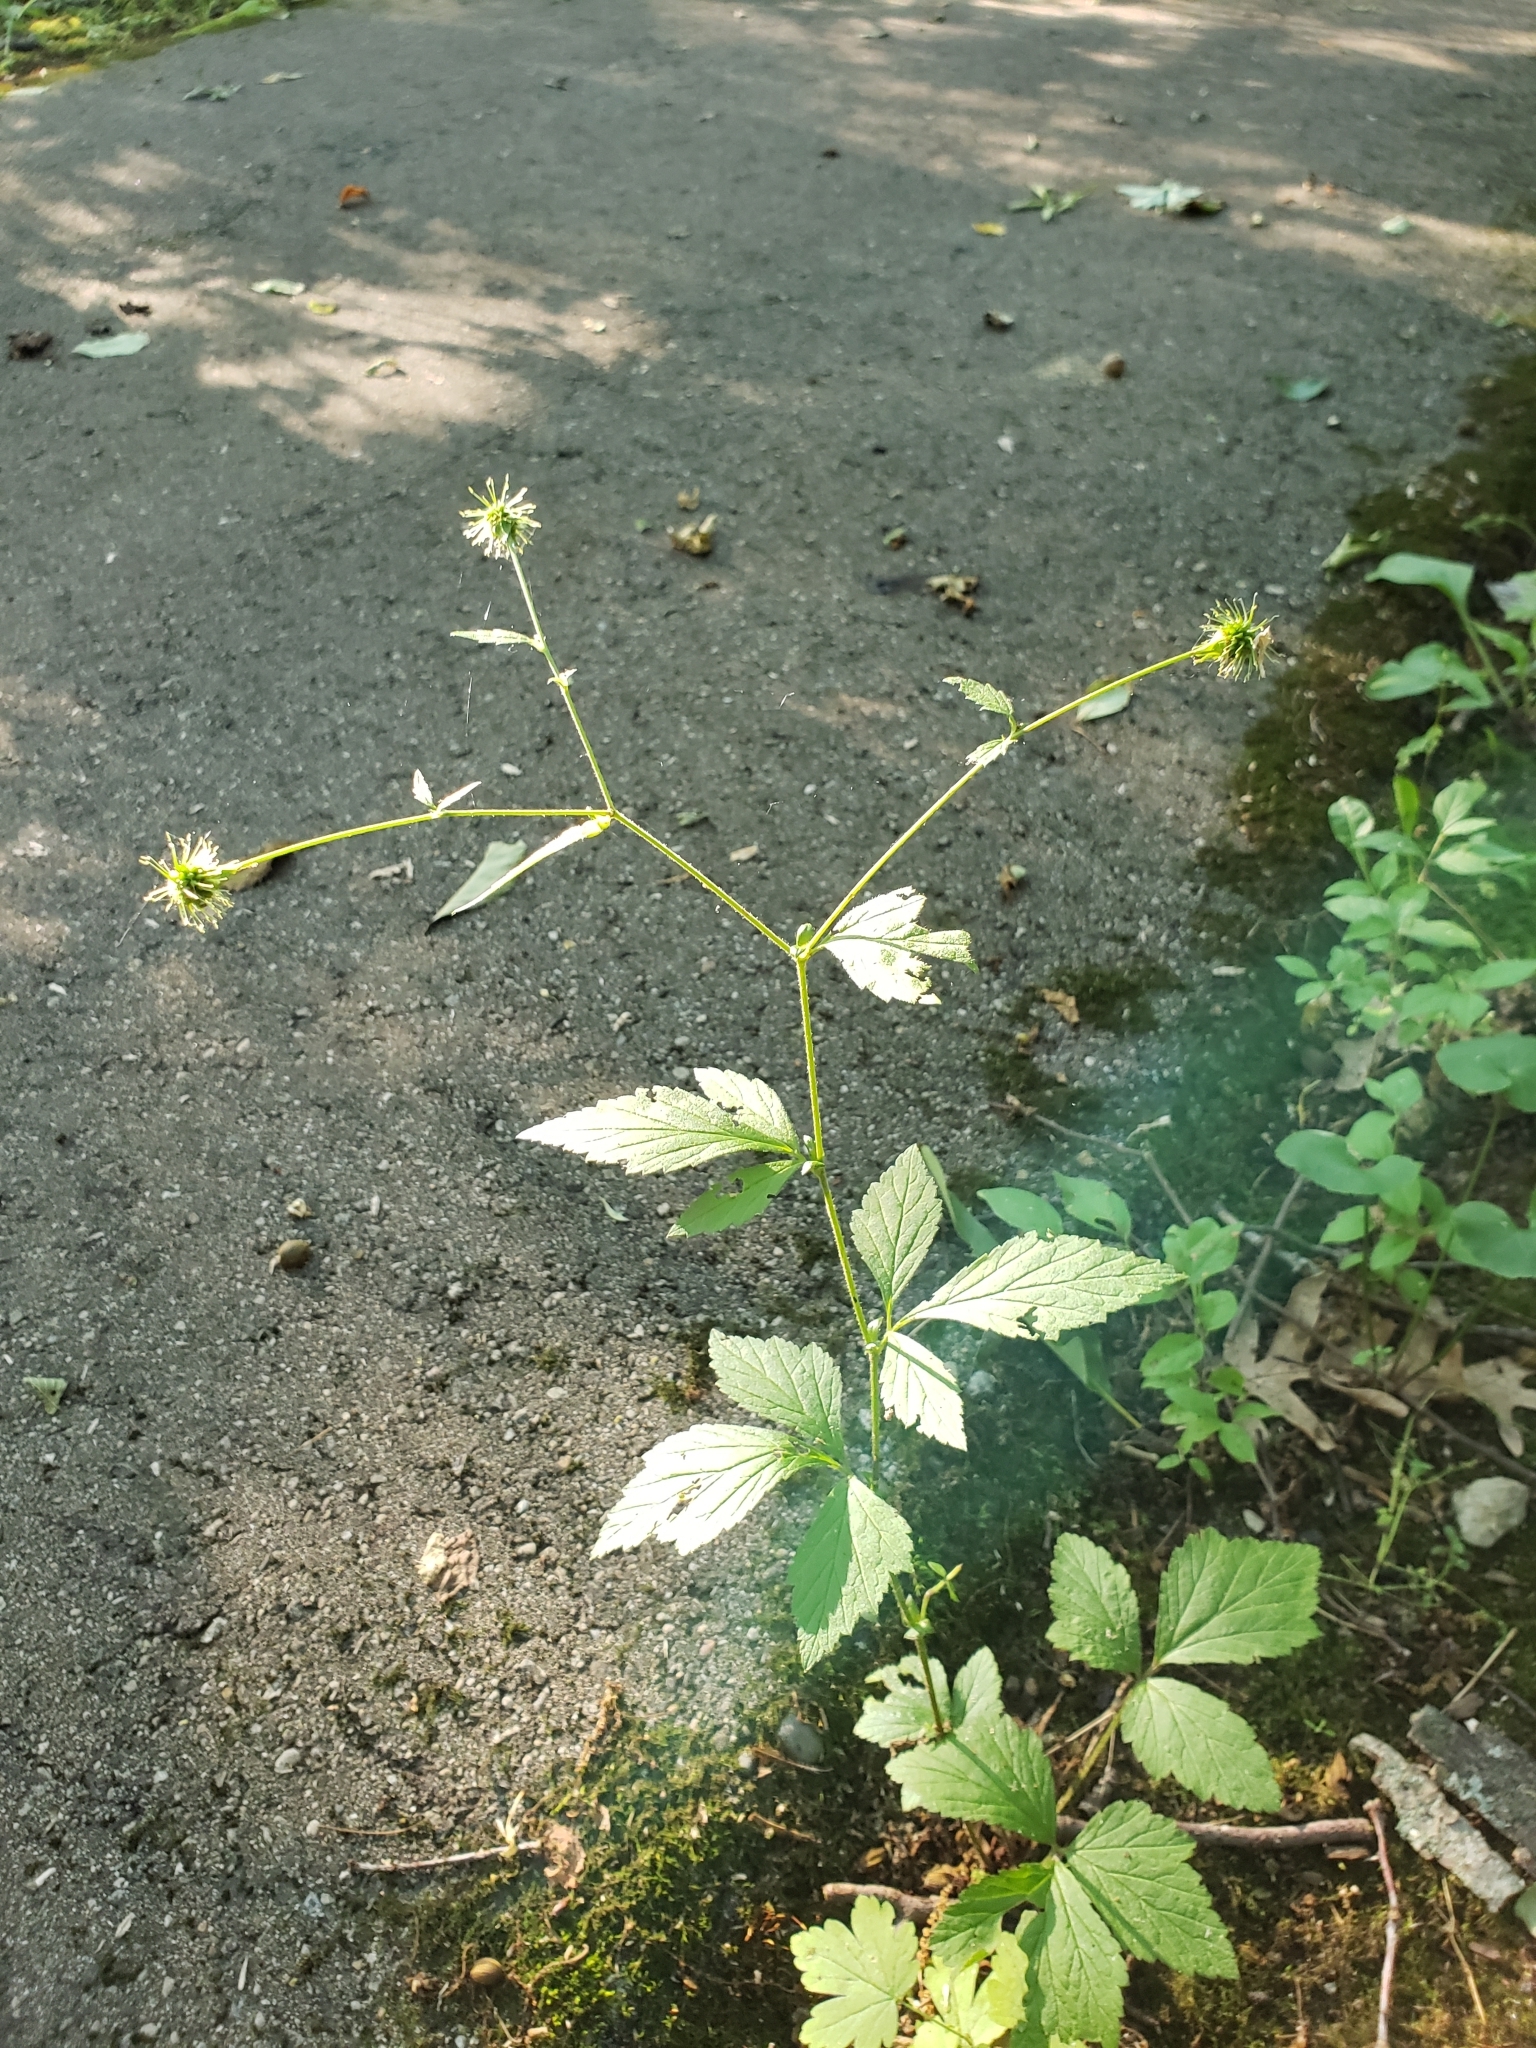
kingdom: Plantae
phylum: Tracheophyta
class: Magnoliopsida
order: Rosales
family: Rosaceae
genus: Geum
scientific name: Geum canadense
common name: White avens
